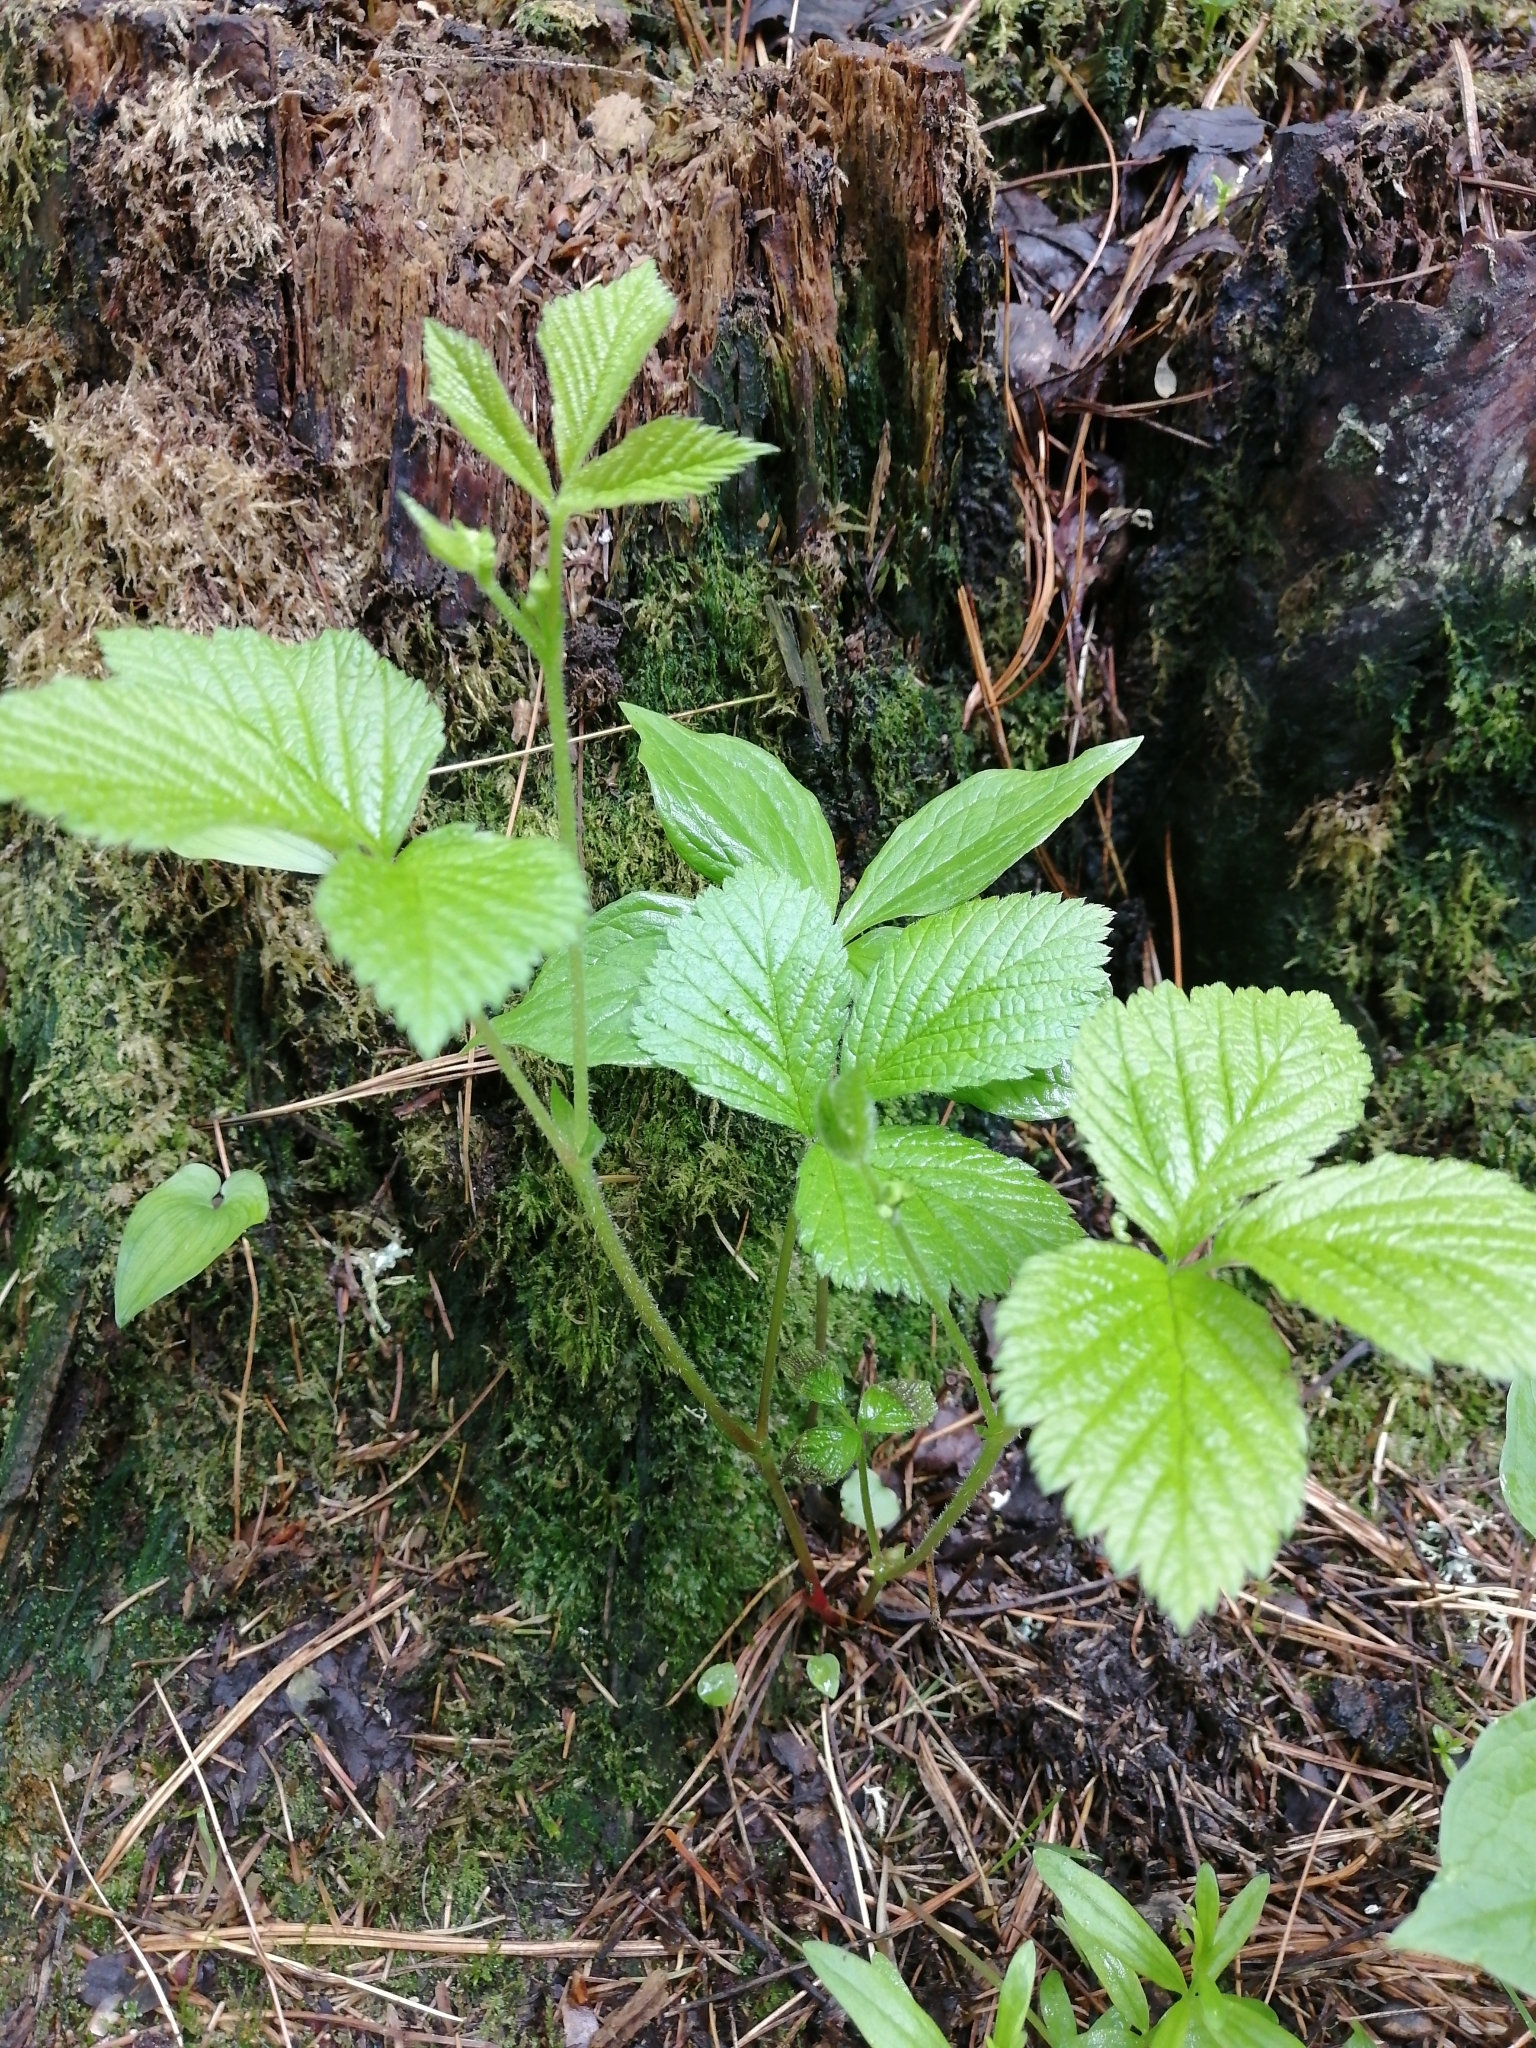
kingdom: Plantae
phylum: Tracheophyta
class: Magnoliopsida
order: Rosales
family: Rosaceae
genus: Rubus
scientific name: Rubus saxatilis
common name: Stone bramble
